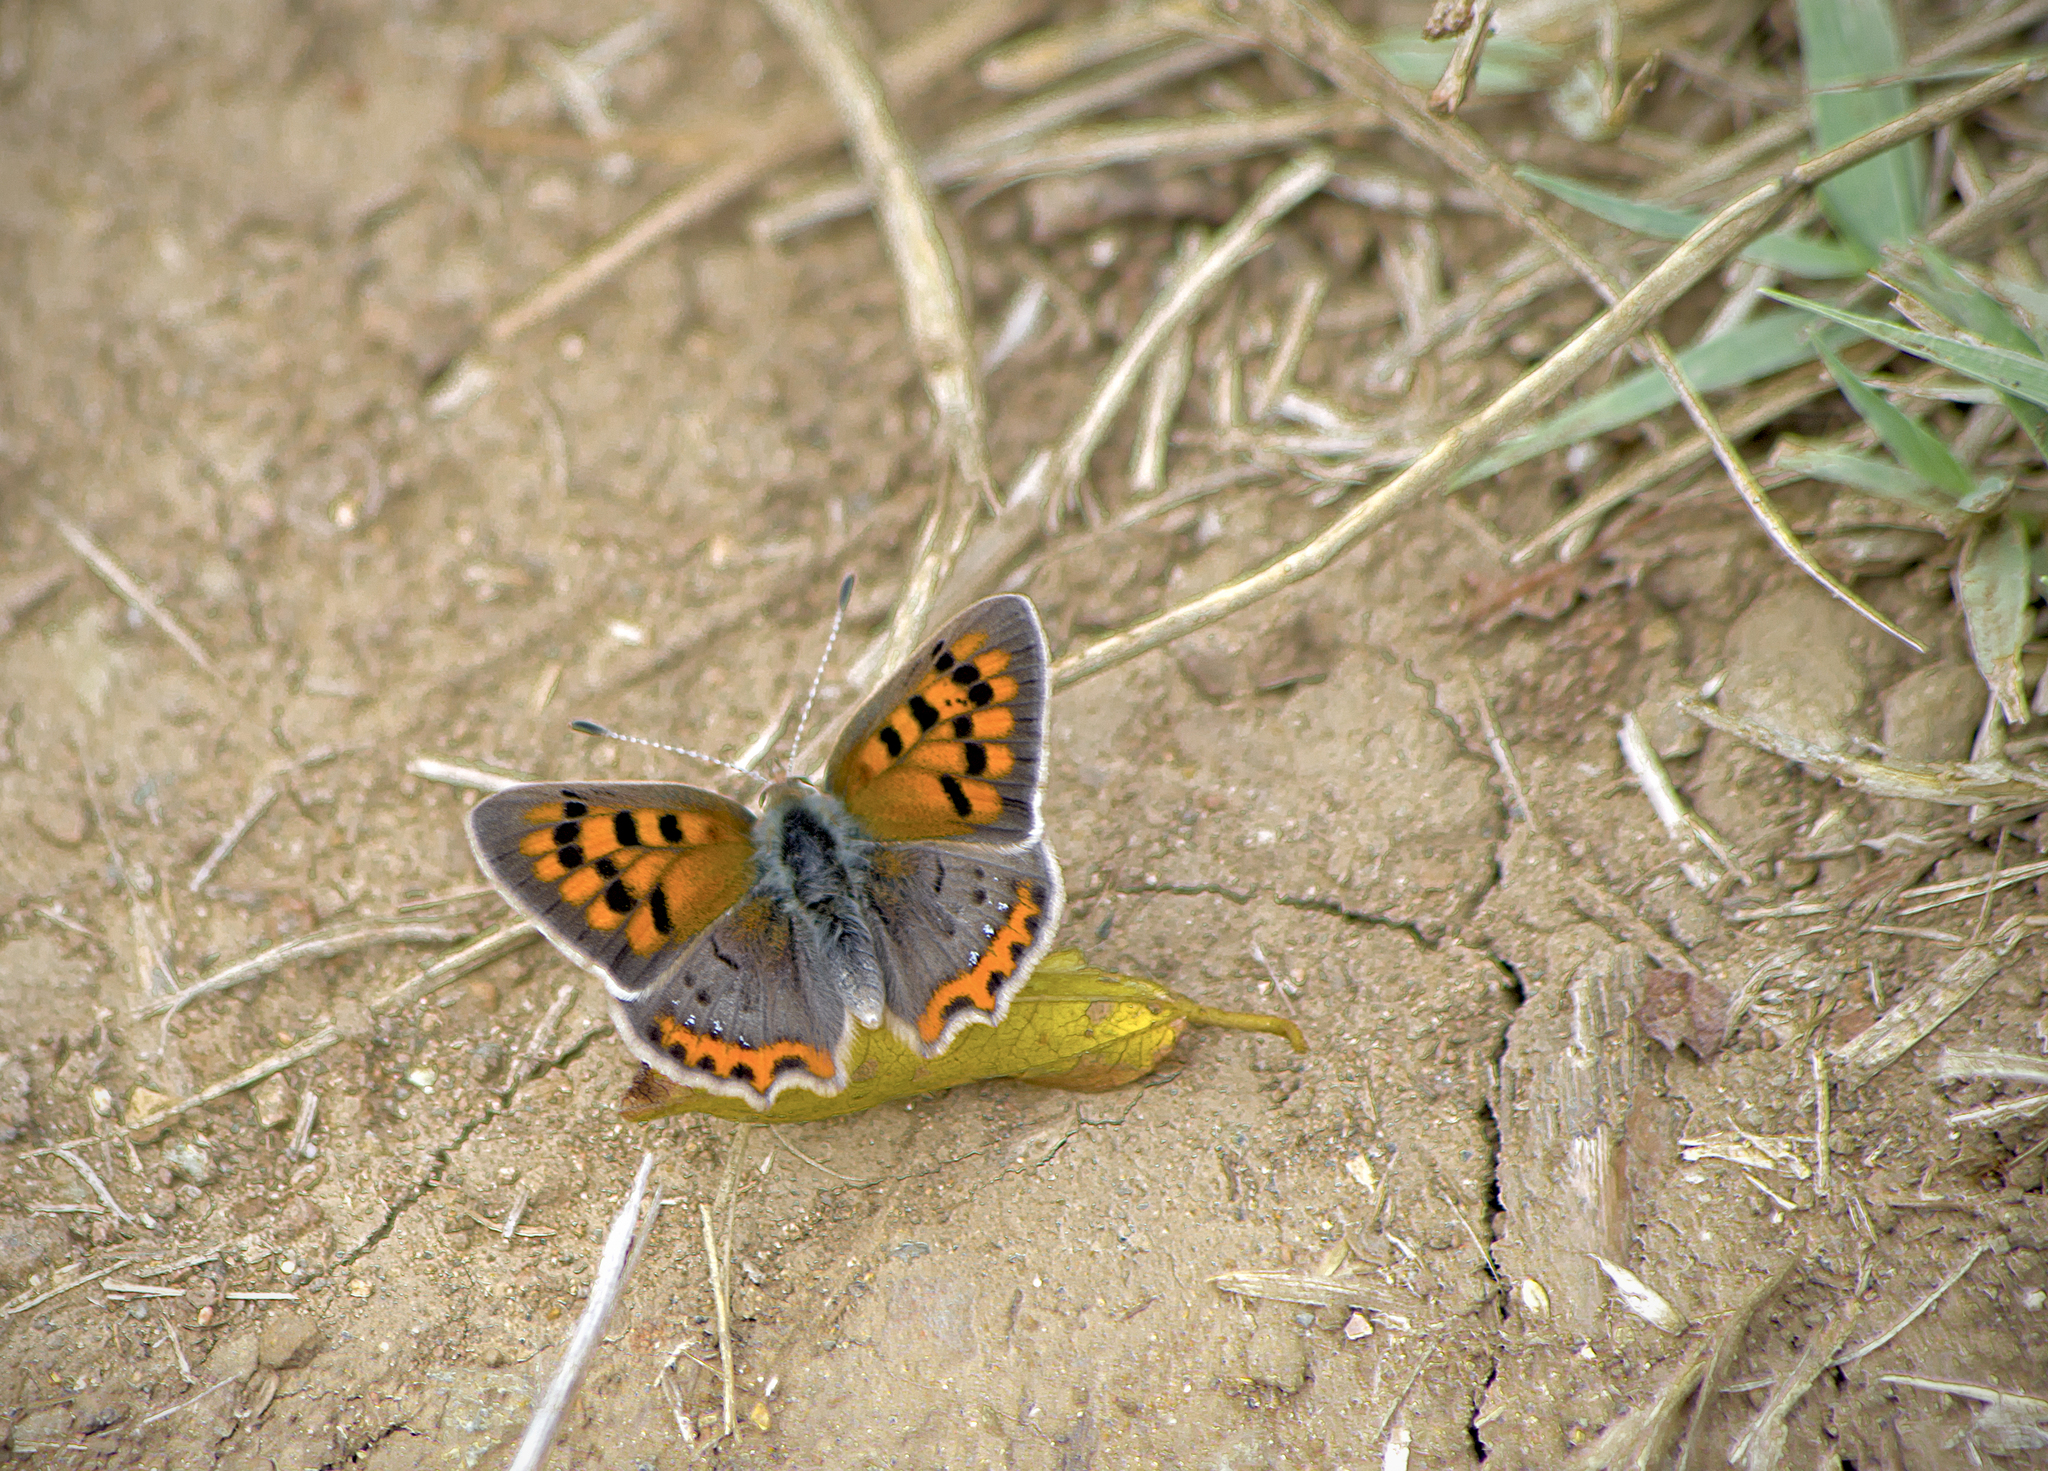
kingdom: Animalia
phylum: Arthropoda
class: Insecta
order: Lepidoptera
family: Lycaenidae
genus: Lycaena
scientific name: Lycaena phlaeas
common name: Small copper
